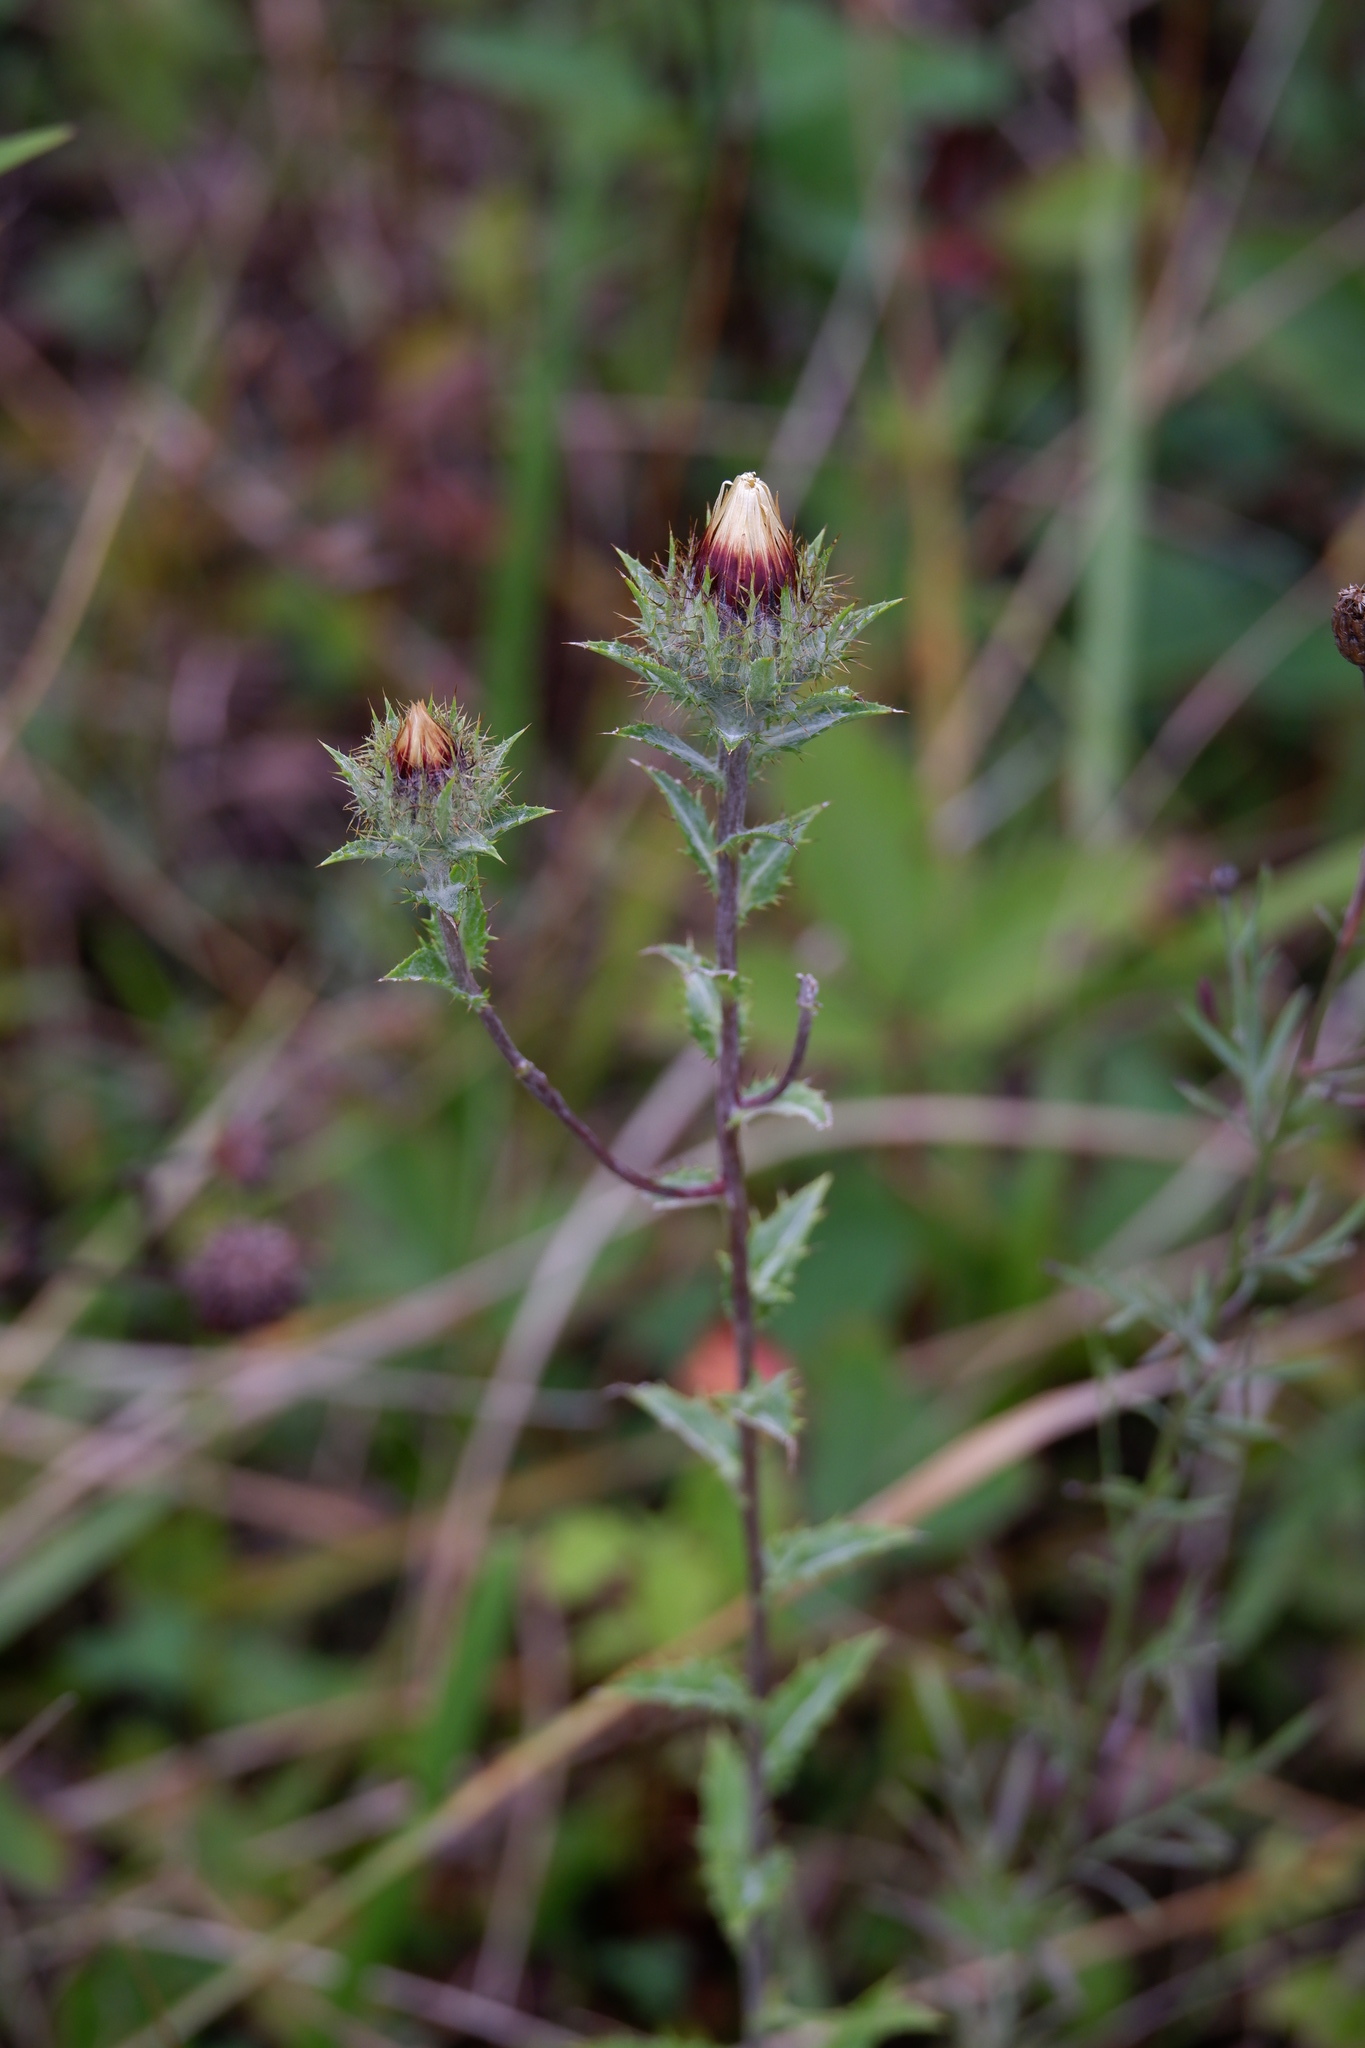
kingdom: Plantae
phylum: Tracheophyta
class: Magnoliopsida
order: Asterales
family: Asteraceae
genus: Carlina
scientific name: Carlina vulgaris
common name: Carline thistle
